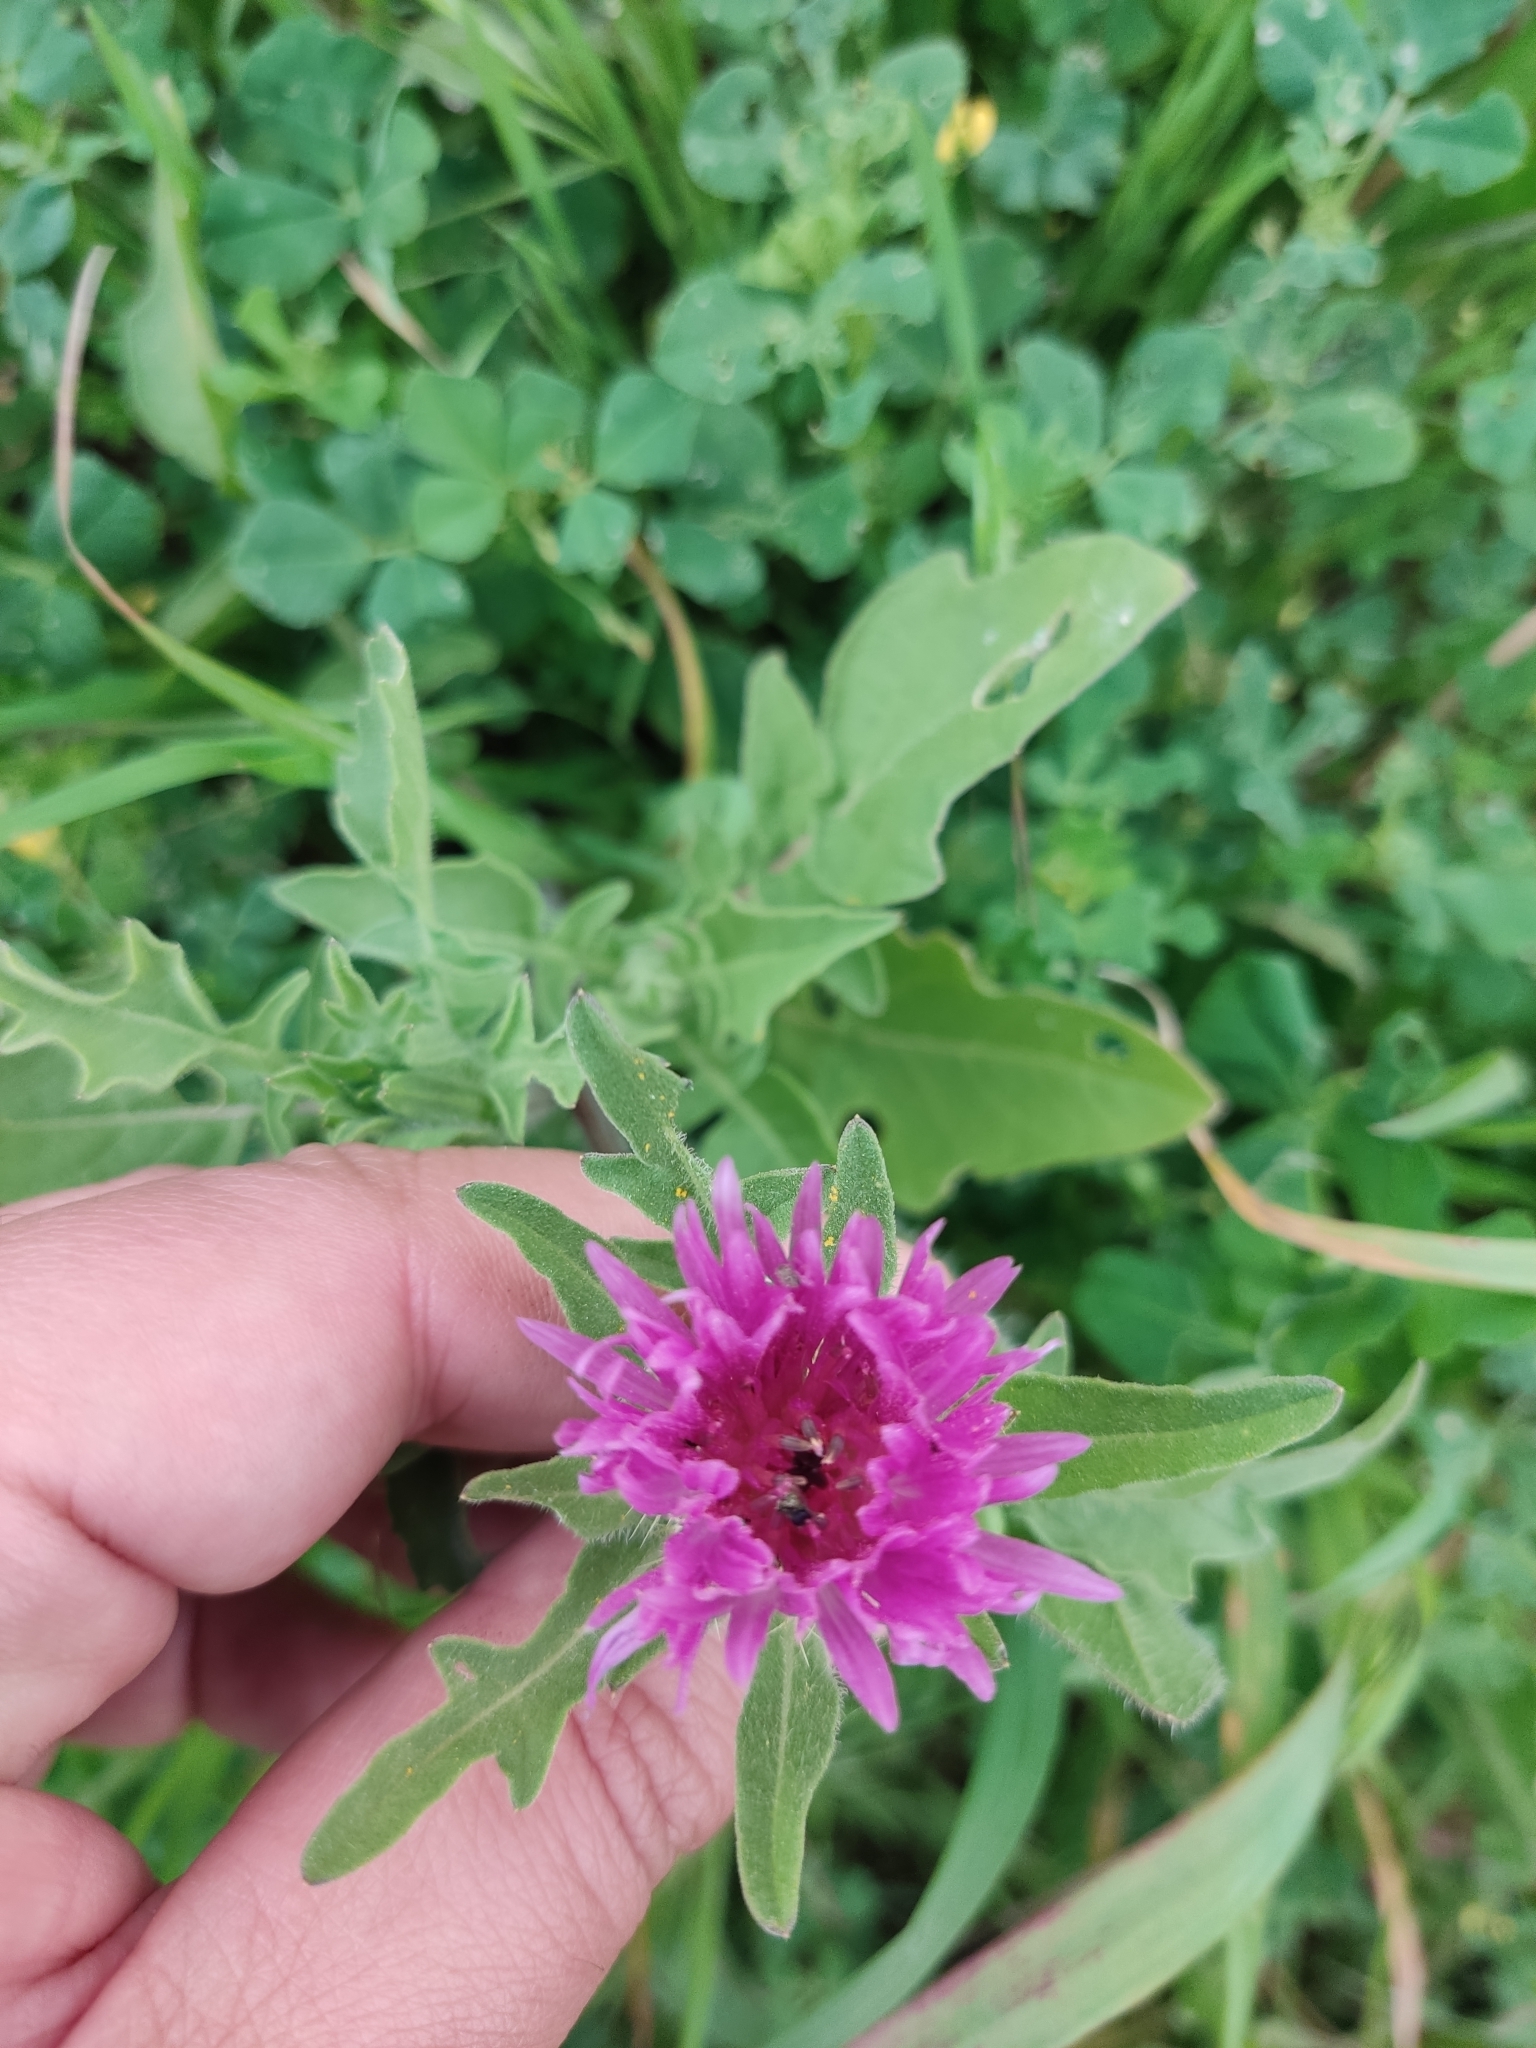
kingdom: Plantae
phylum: Tracheophyta
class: Magnoliopsida
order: Asterales
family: Asteraceae
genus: Centaurea
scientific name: Centaurea pullata
